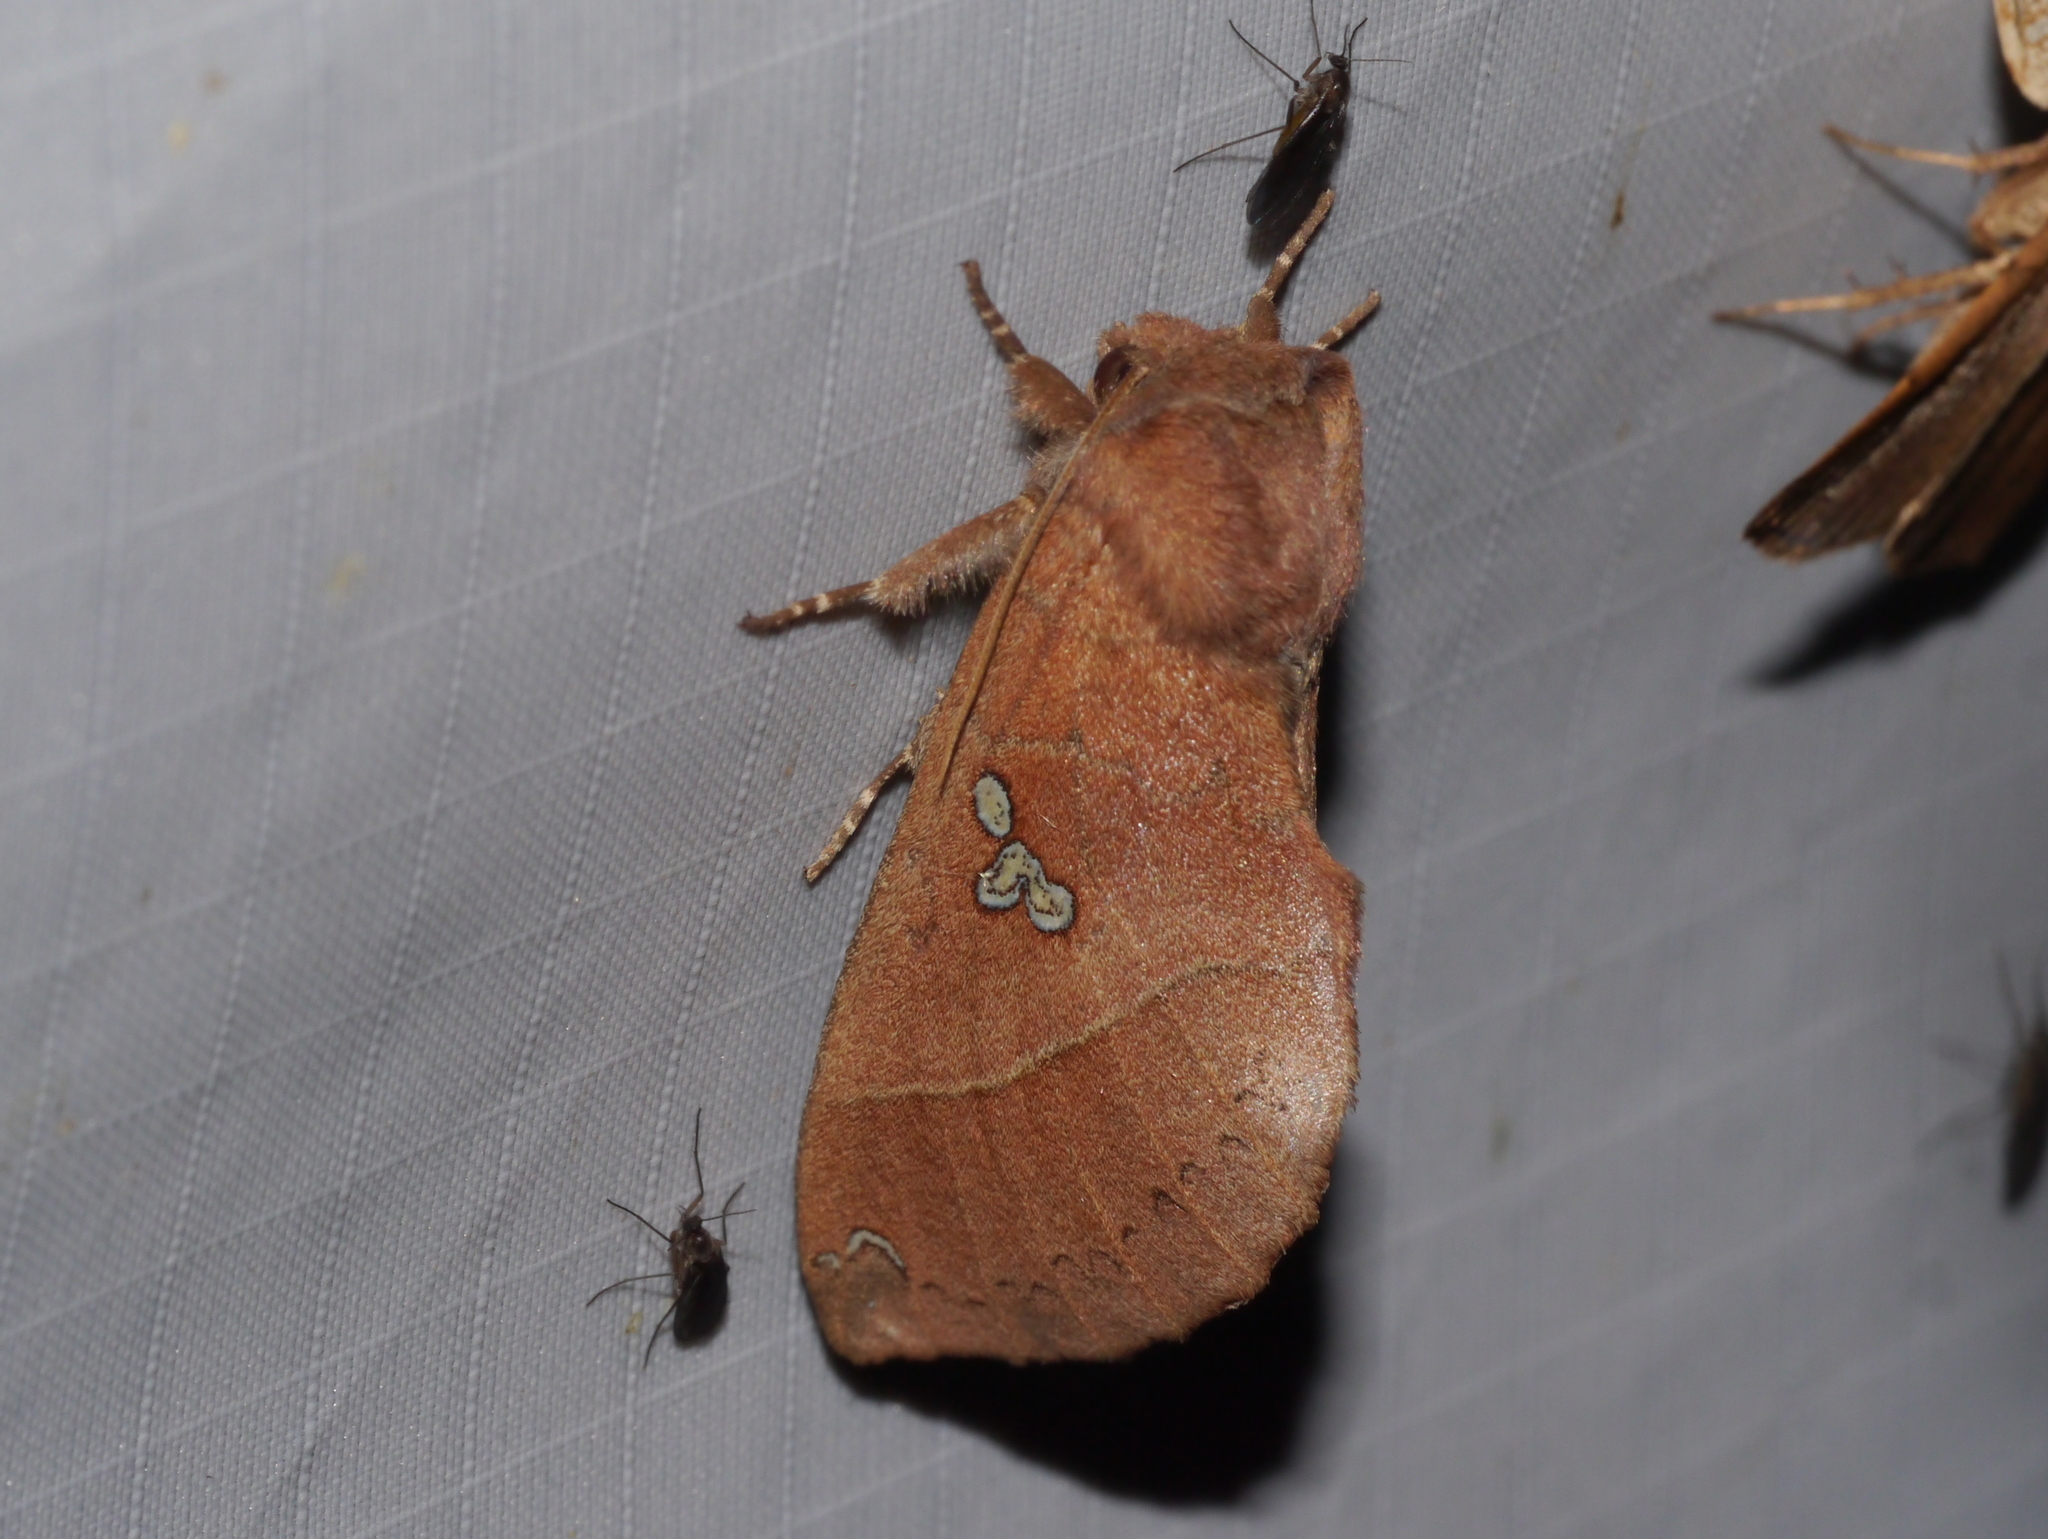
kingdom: Animalia
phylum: Arthropoda
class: Insecta
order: Lepidoptera
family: Notodontidae
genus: Pseudhapigia
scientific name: Pseudhapigia brunnea
